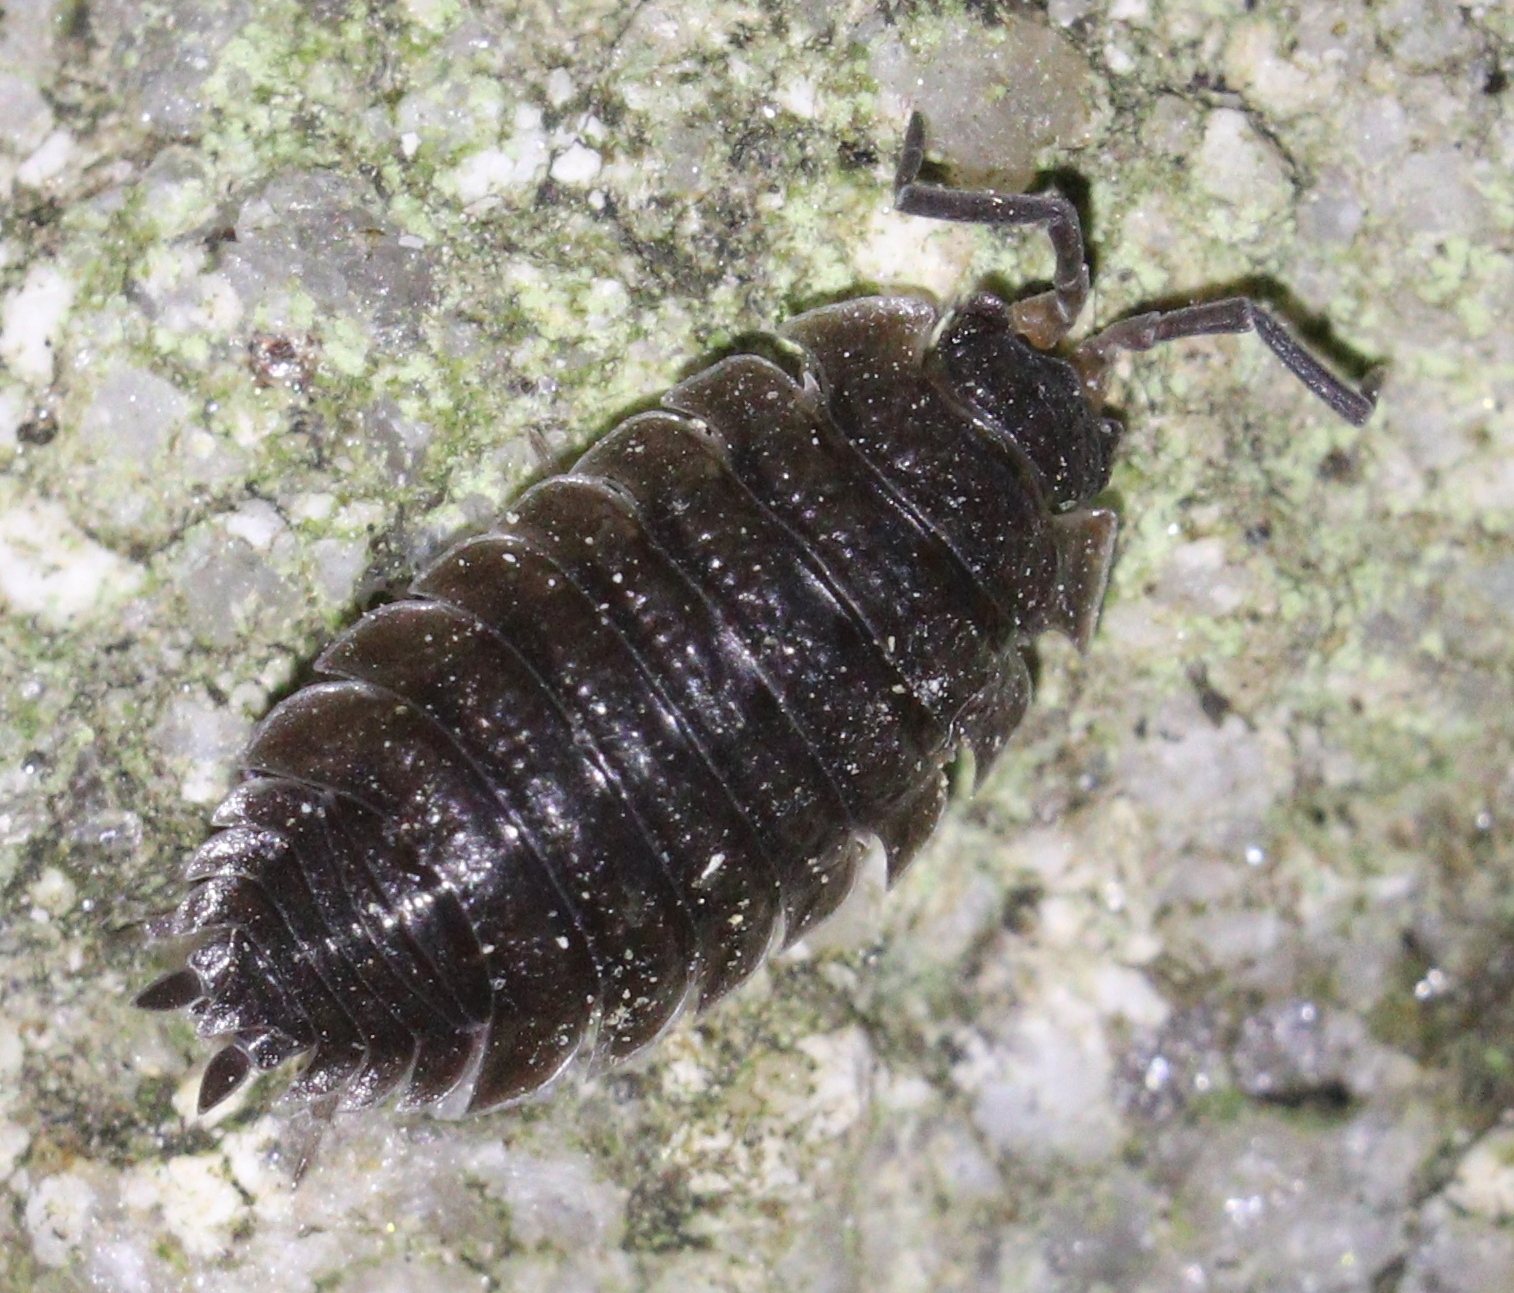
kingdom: Animalia
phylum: Arthropoda
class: Malacostraca
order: Isopoda
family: Porcellionidae
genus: Porcellio
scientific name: Porcellio scaber
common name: Common rough woodlouse
